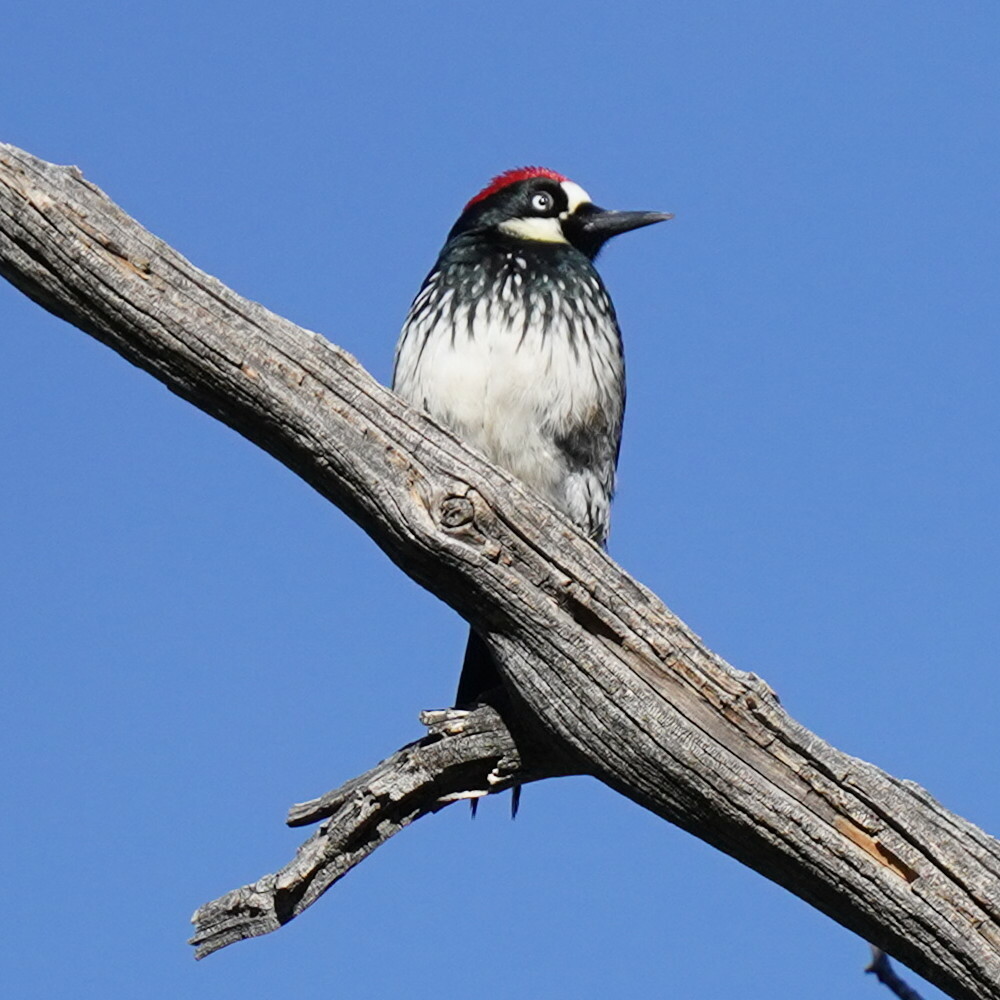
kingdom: Animalia
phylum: Chordata
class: Aves
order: Piciformes
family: Picidae
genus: Melanerpes
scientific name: Melanerpes formicivorus
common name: Acorn woodpecker
